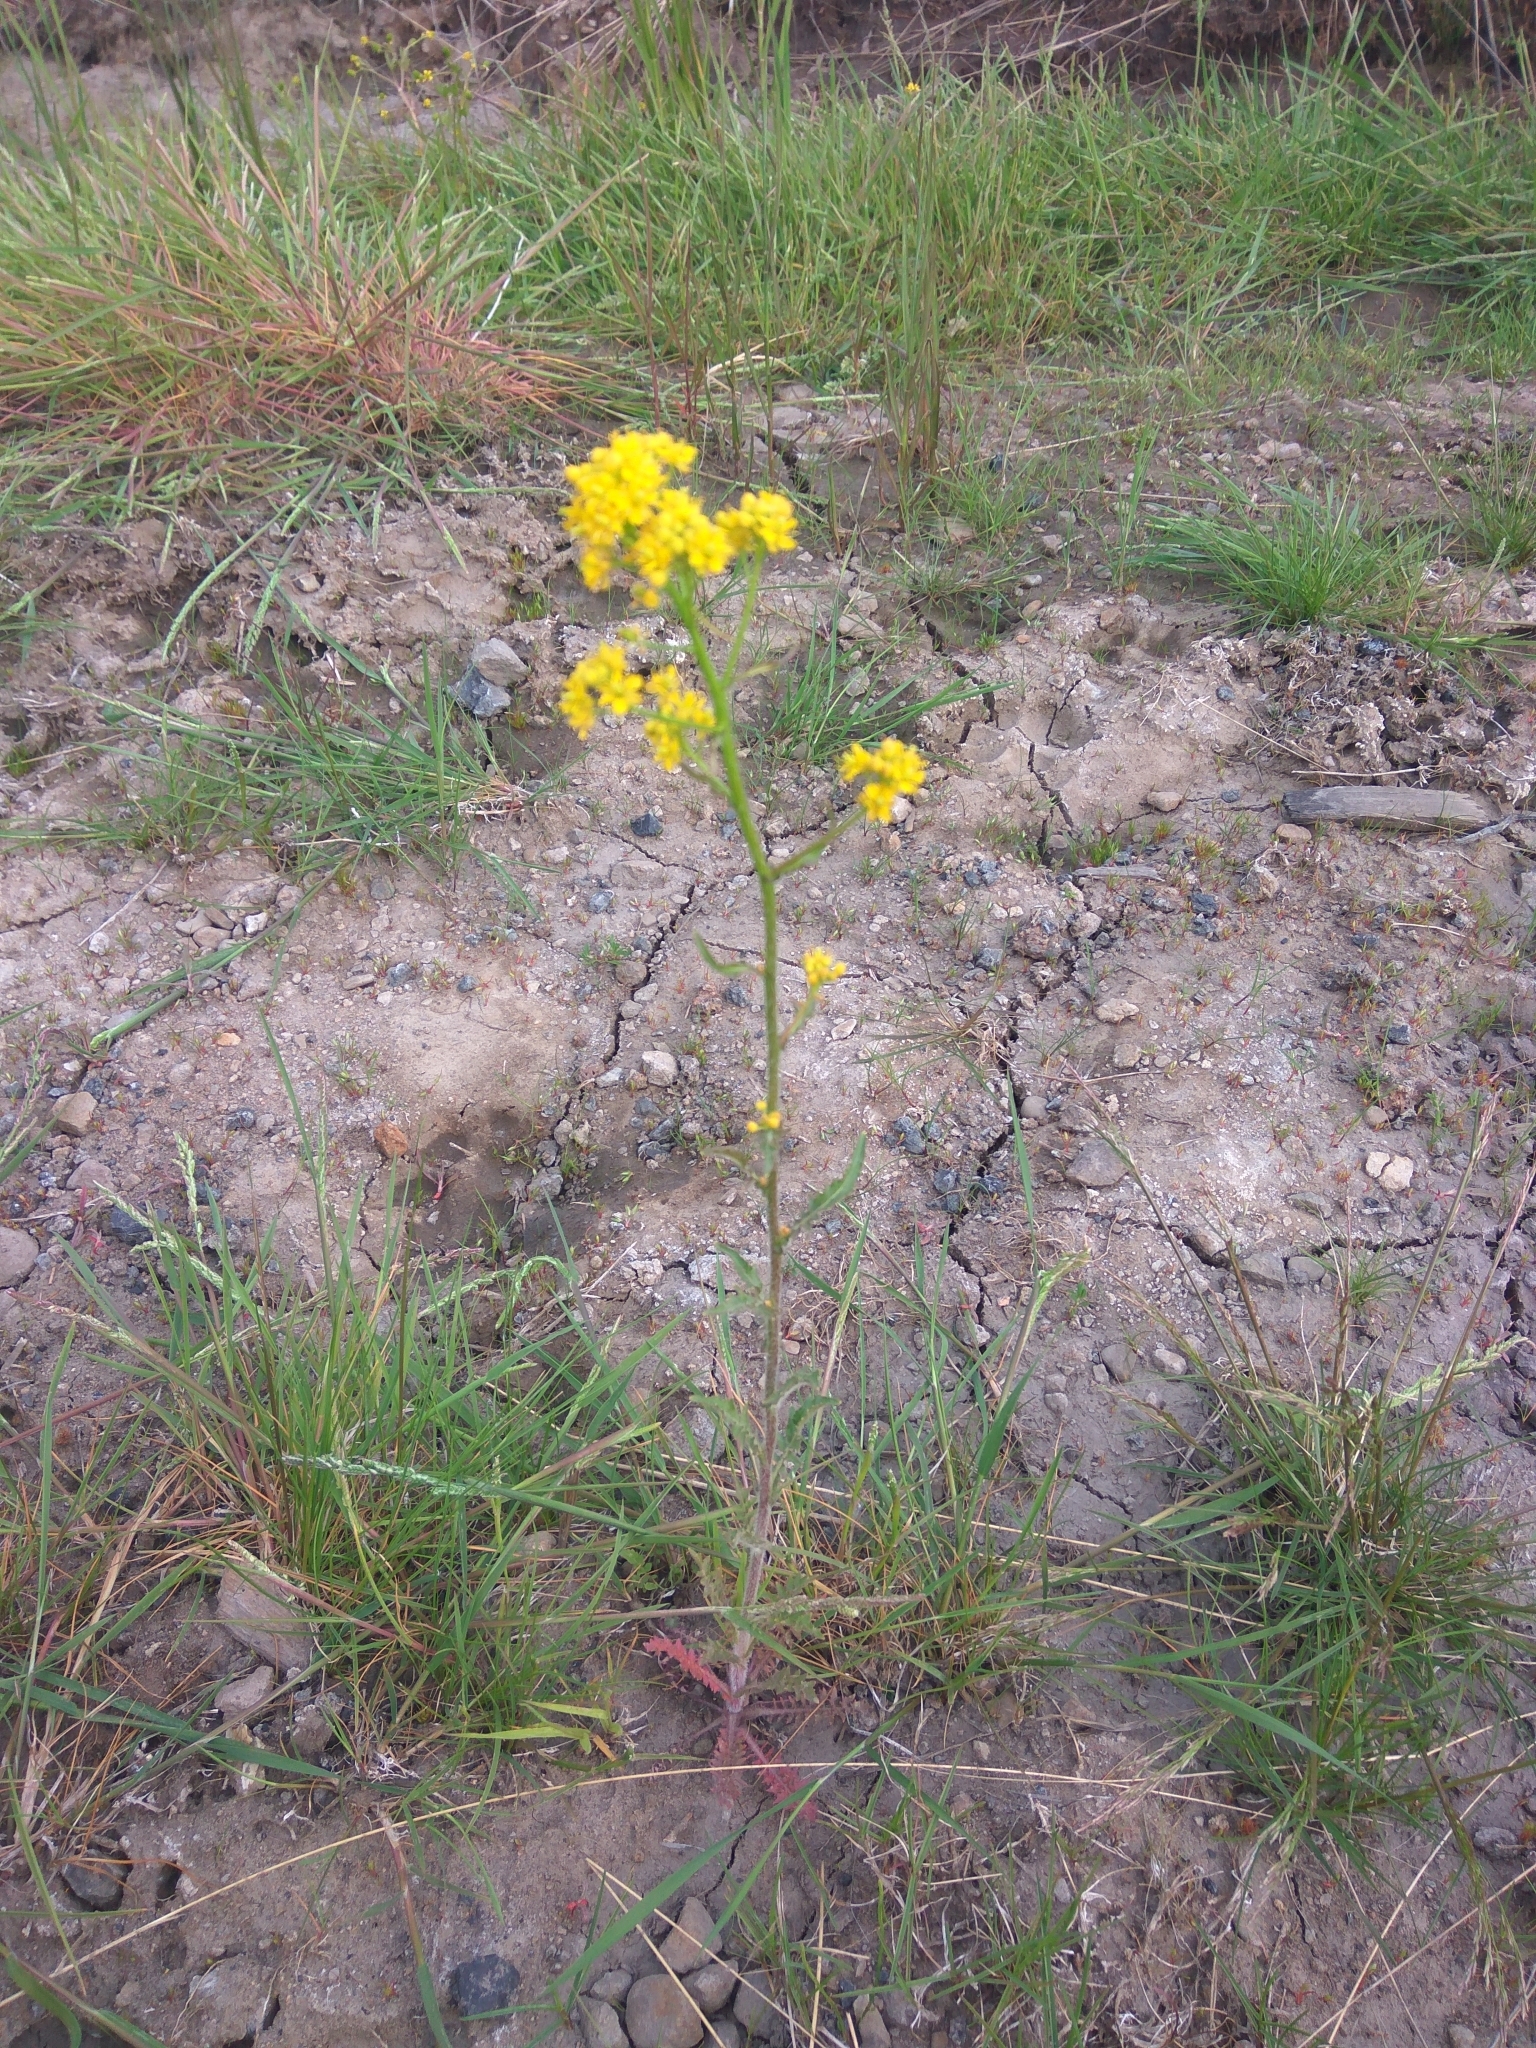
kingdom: Plantae
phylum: Tracheophyta
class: Magnoliopsida
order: Brassicales
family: Brassicaceae
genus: Rorippa
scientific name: Rorippa barbareifolia
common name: Hoary yellowcress
